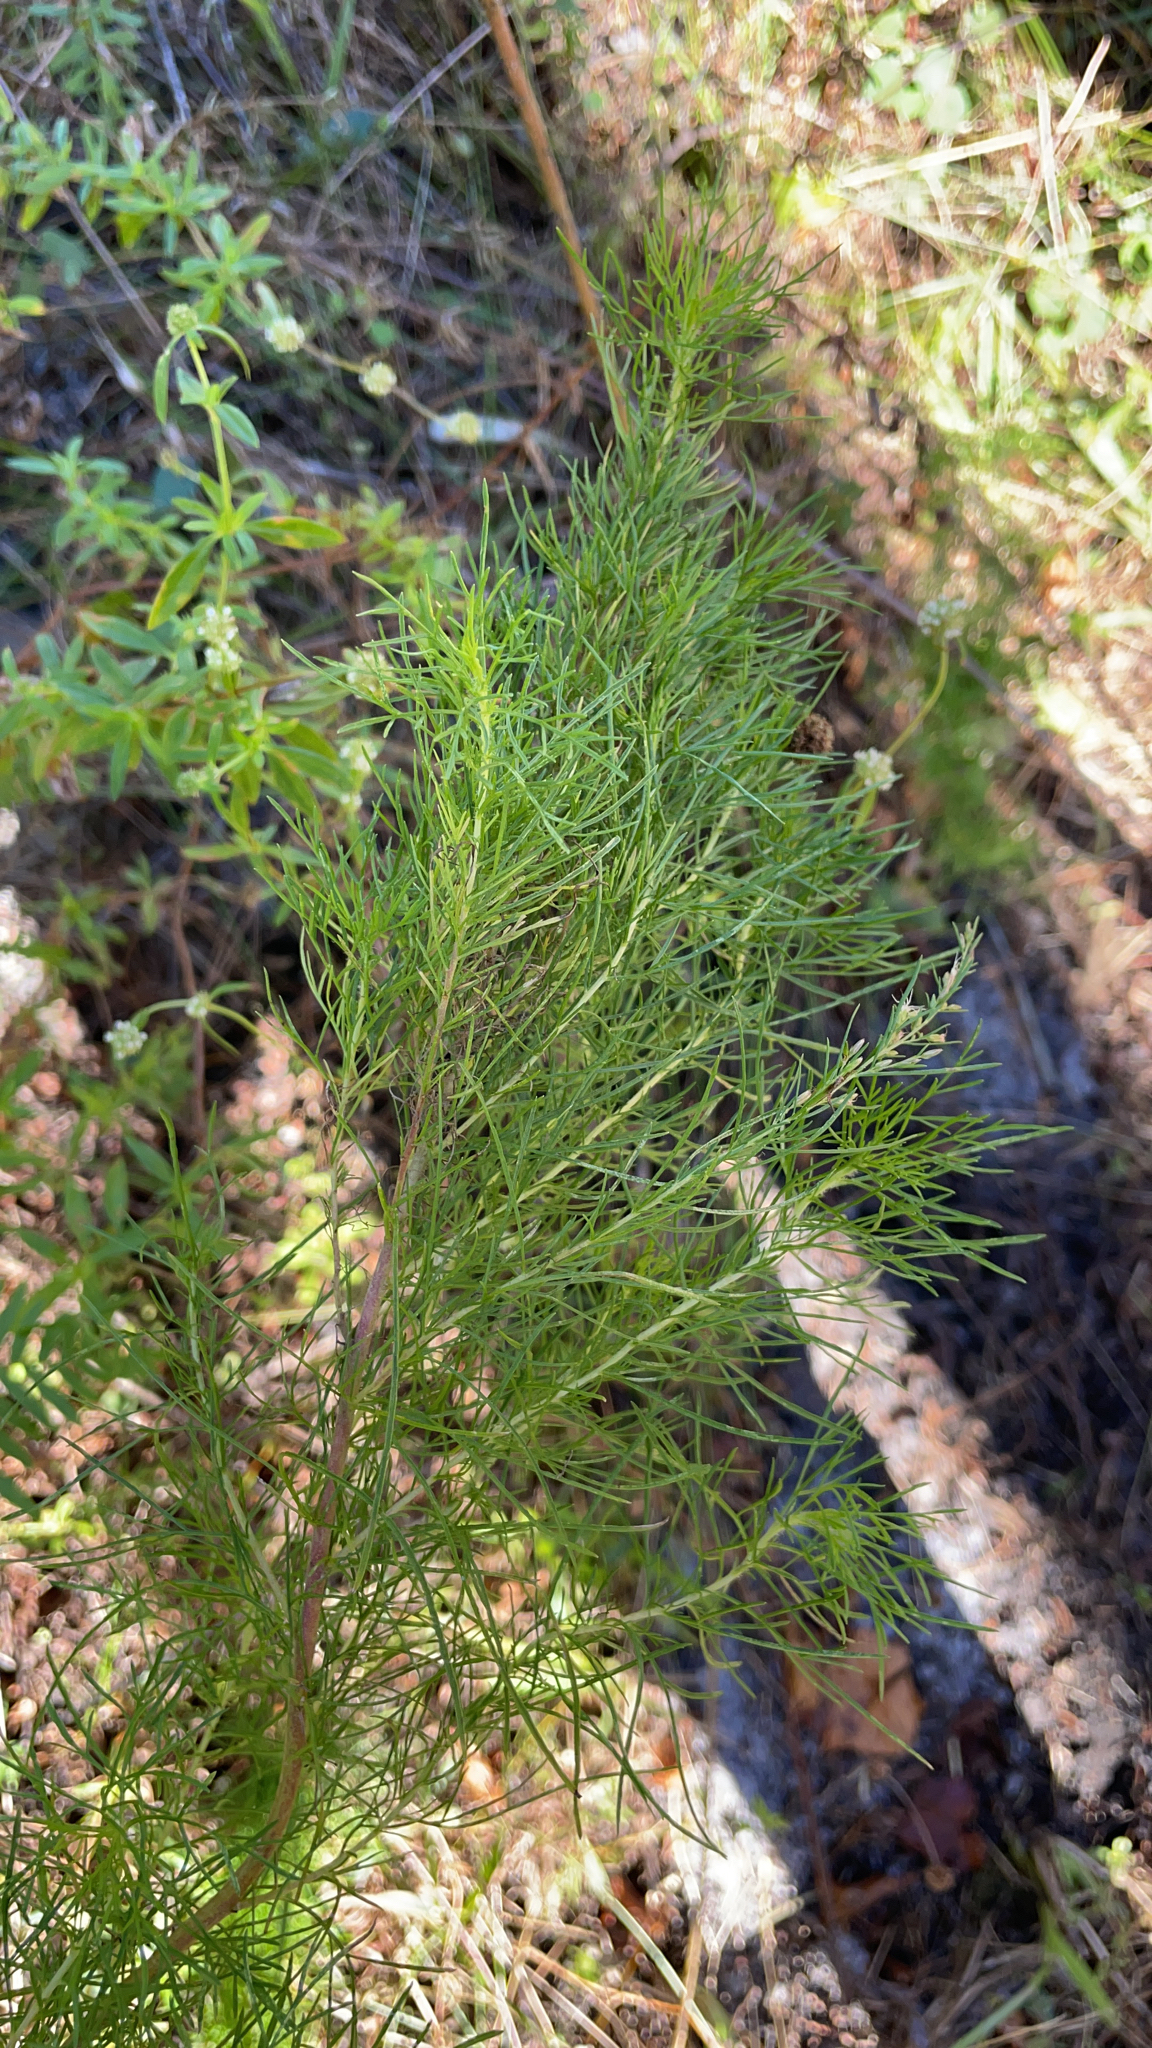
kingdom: Plantae
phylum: Tracheophyta
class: Magnoliopsida
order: Asterales
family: Asteraceae
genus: Eupatorium
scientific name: Eupatorium capillifolium
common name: Dog-fennel
